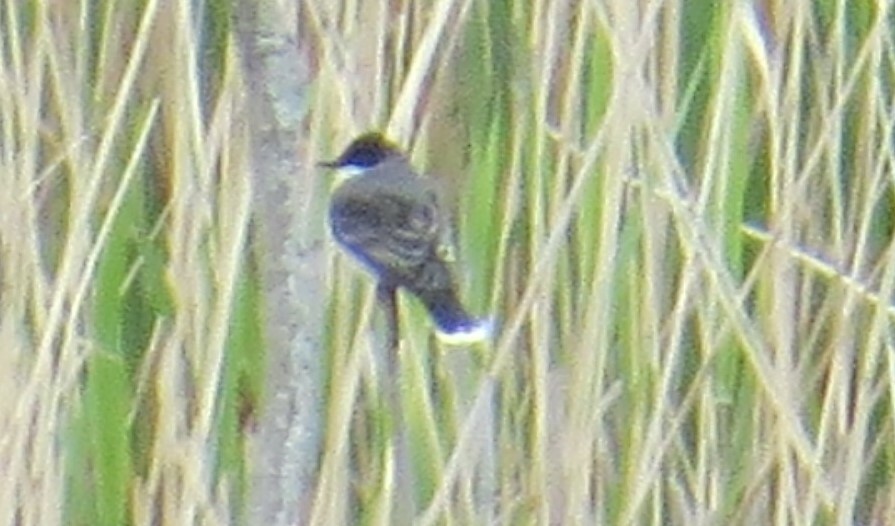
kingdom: Animalia
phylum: Chordata
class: Aves
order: Passeriformes
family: Tyrannidae
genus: Tyrannus
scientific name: Tyrannus tyrannus
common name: Eastern kingbird
